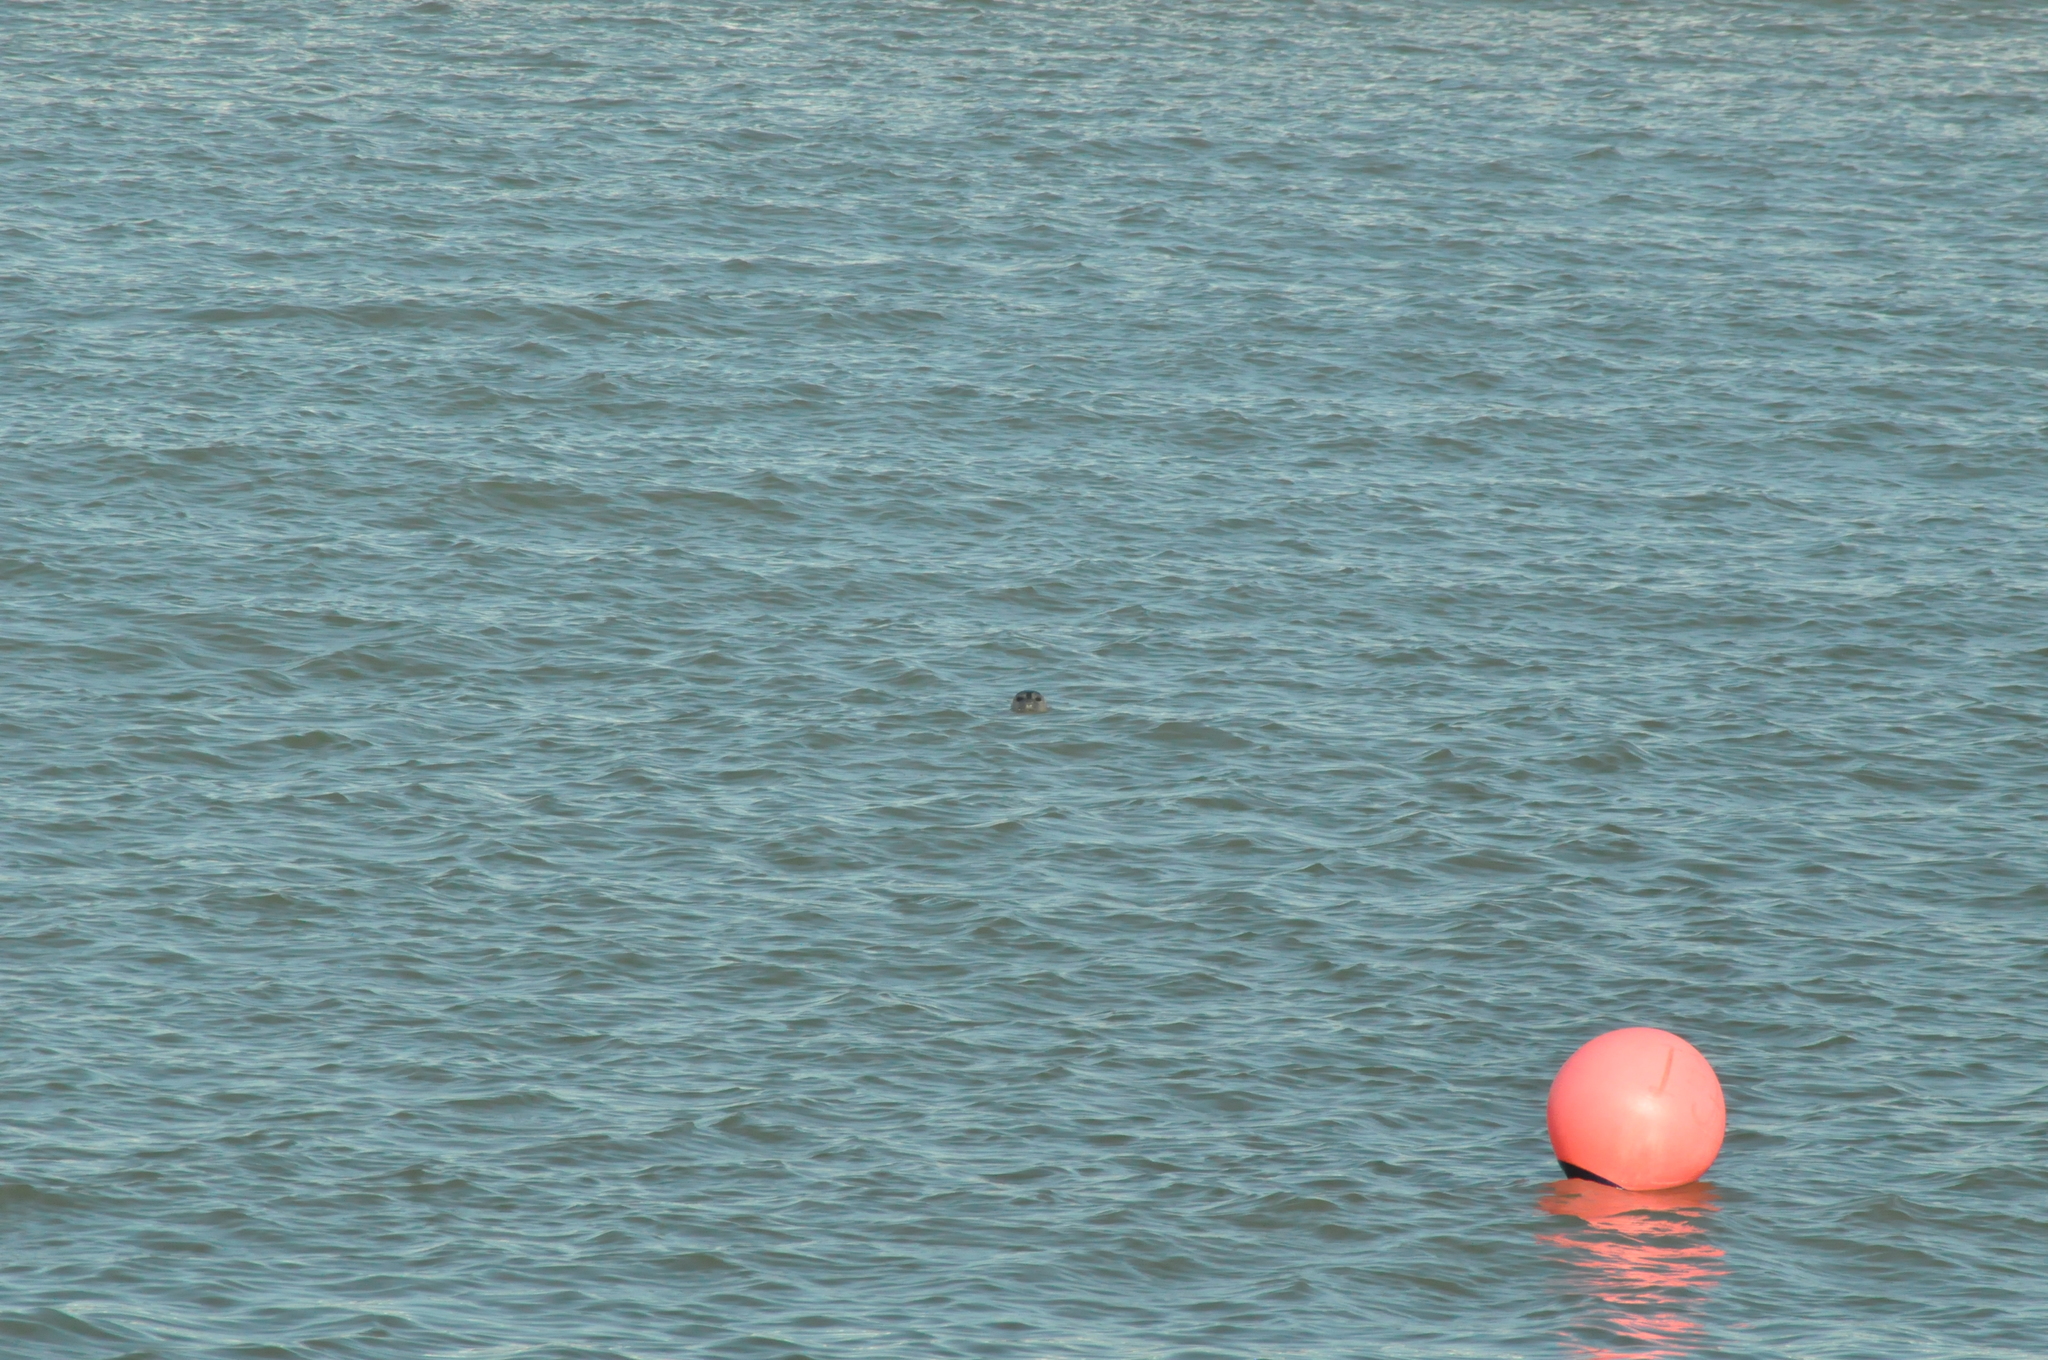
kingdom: Animalia
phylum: Chordata
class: Mammalia
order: Carnivora
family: Phocidae
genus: Phoca
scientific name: Phoca vitulina
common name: Harbor seal
